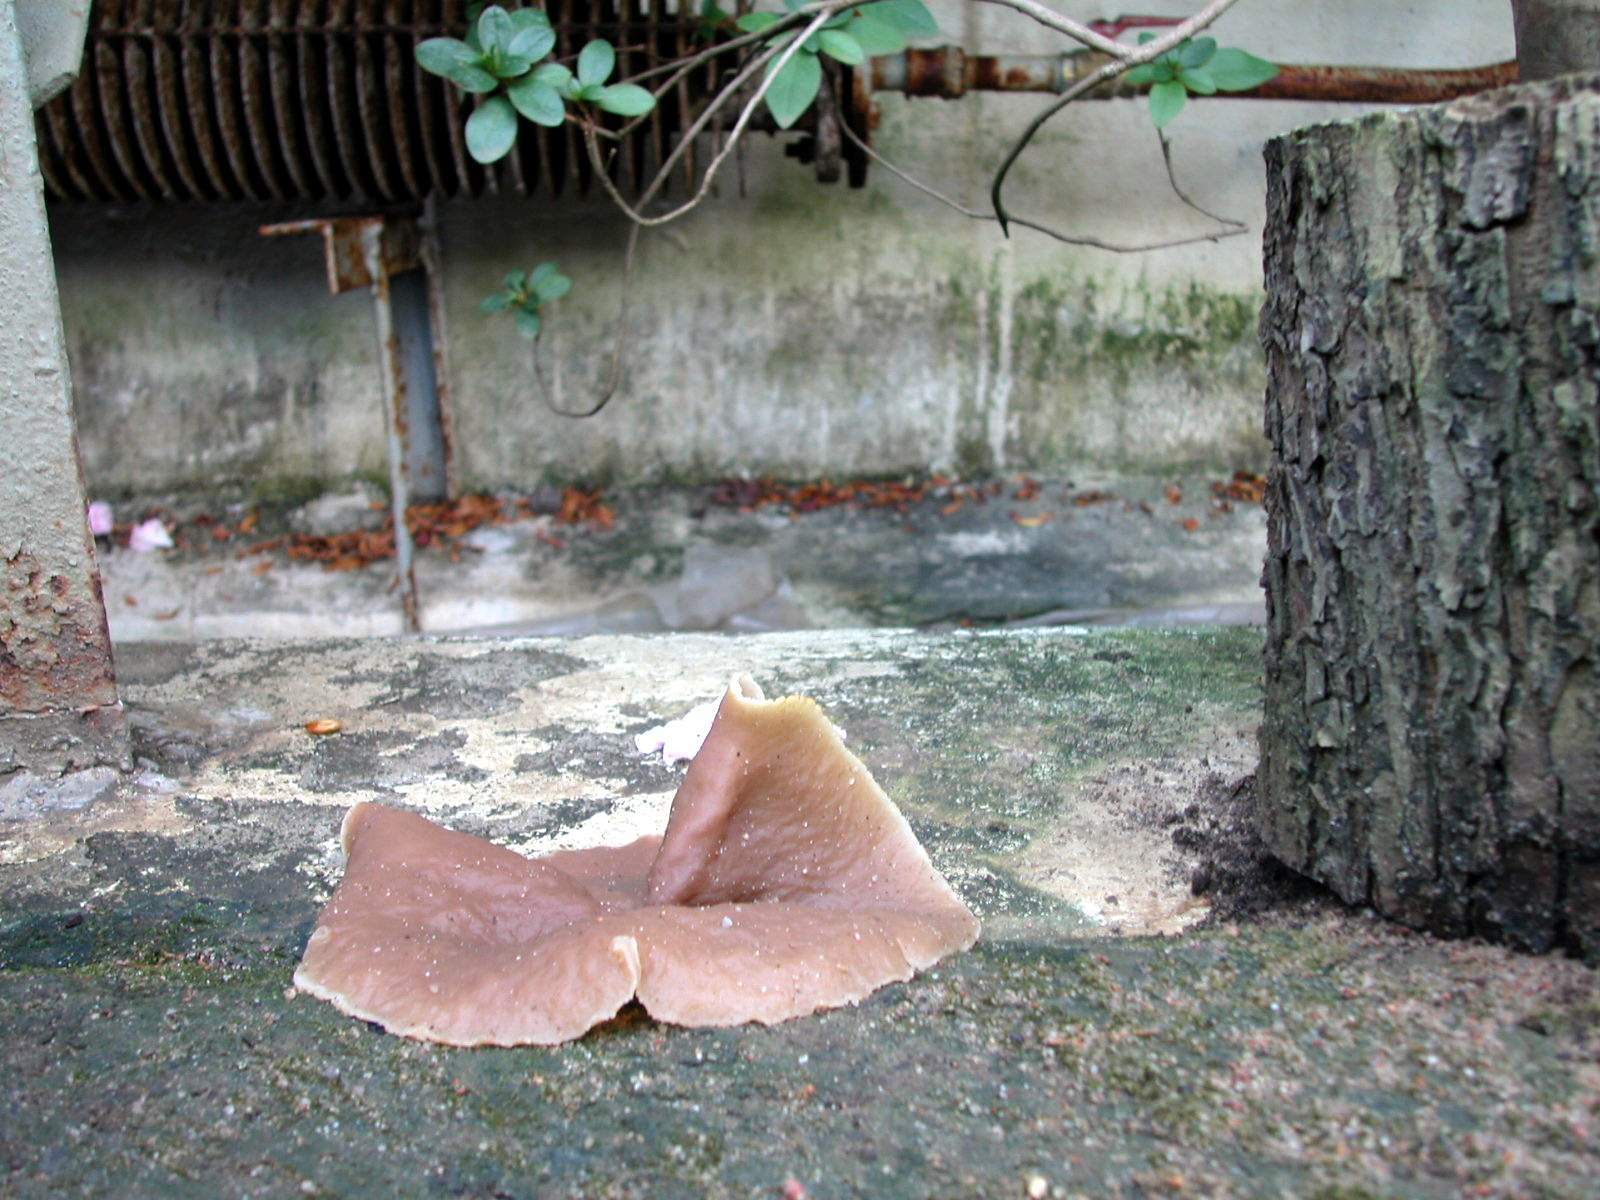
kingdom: Fungi
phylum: Ascomycota
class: Pezizomycetes
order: Pezizales
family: Pezizaceae
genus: Peziza
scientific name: Peziza varia
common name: Layered cup
